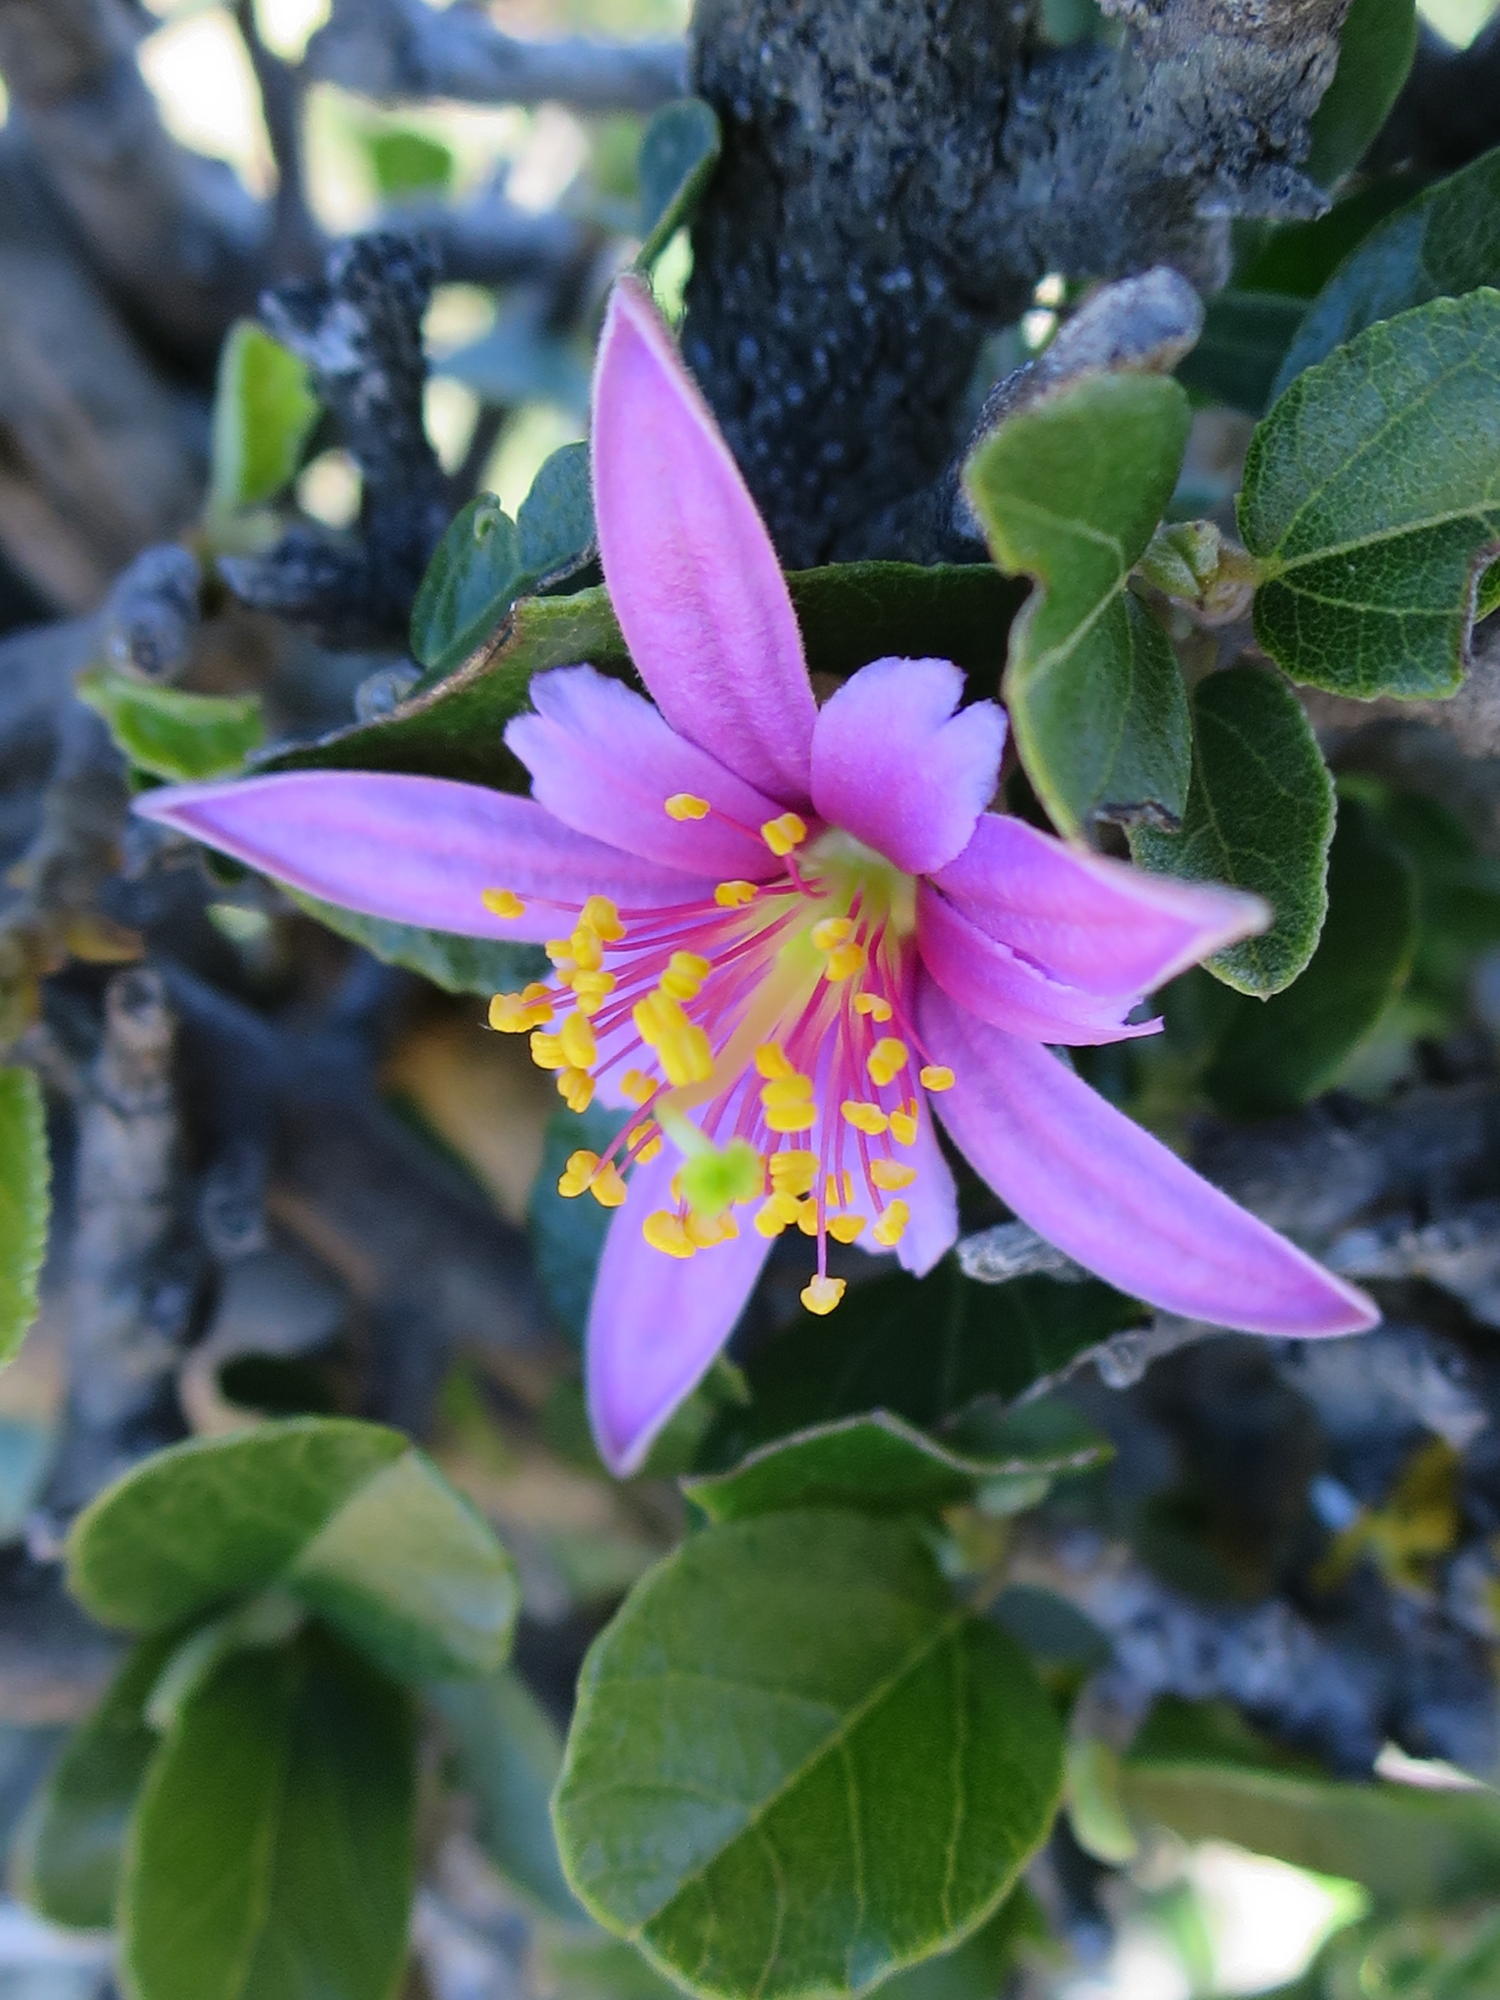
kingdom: Plantae
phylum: Tracheophyta
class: Magnoliopsida
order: Malvales
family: Malvaceae
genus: Grewia
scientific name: Grewia robusta
